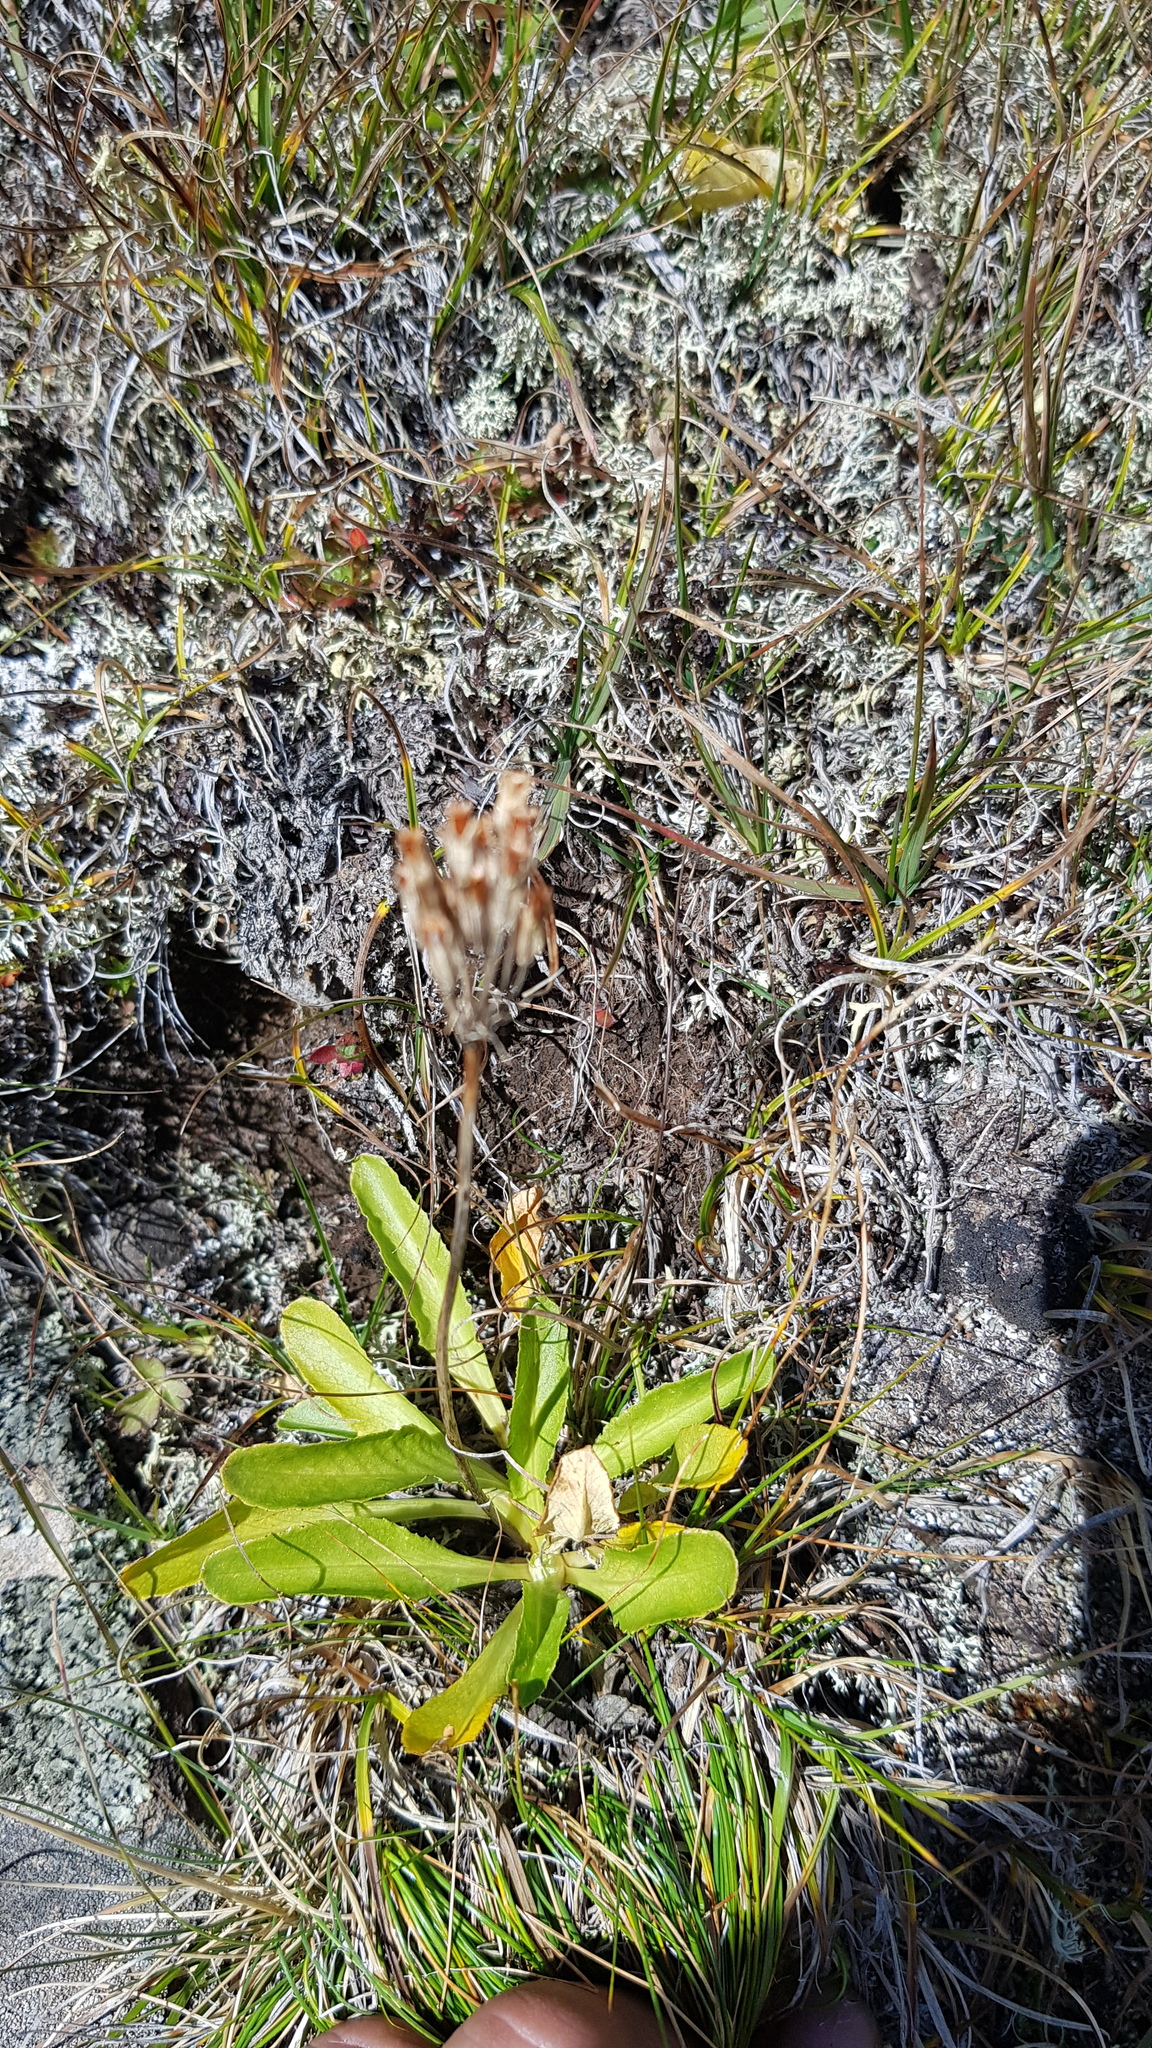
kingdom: Plantae
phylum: Tracheophyta
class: Magnoliopsida
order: Ericales
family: Primulaceae
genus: Primula
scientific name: Primula nivalis
